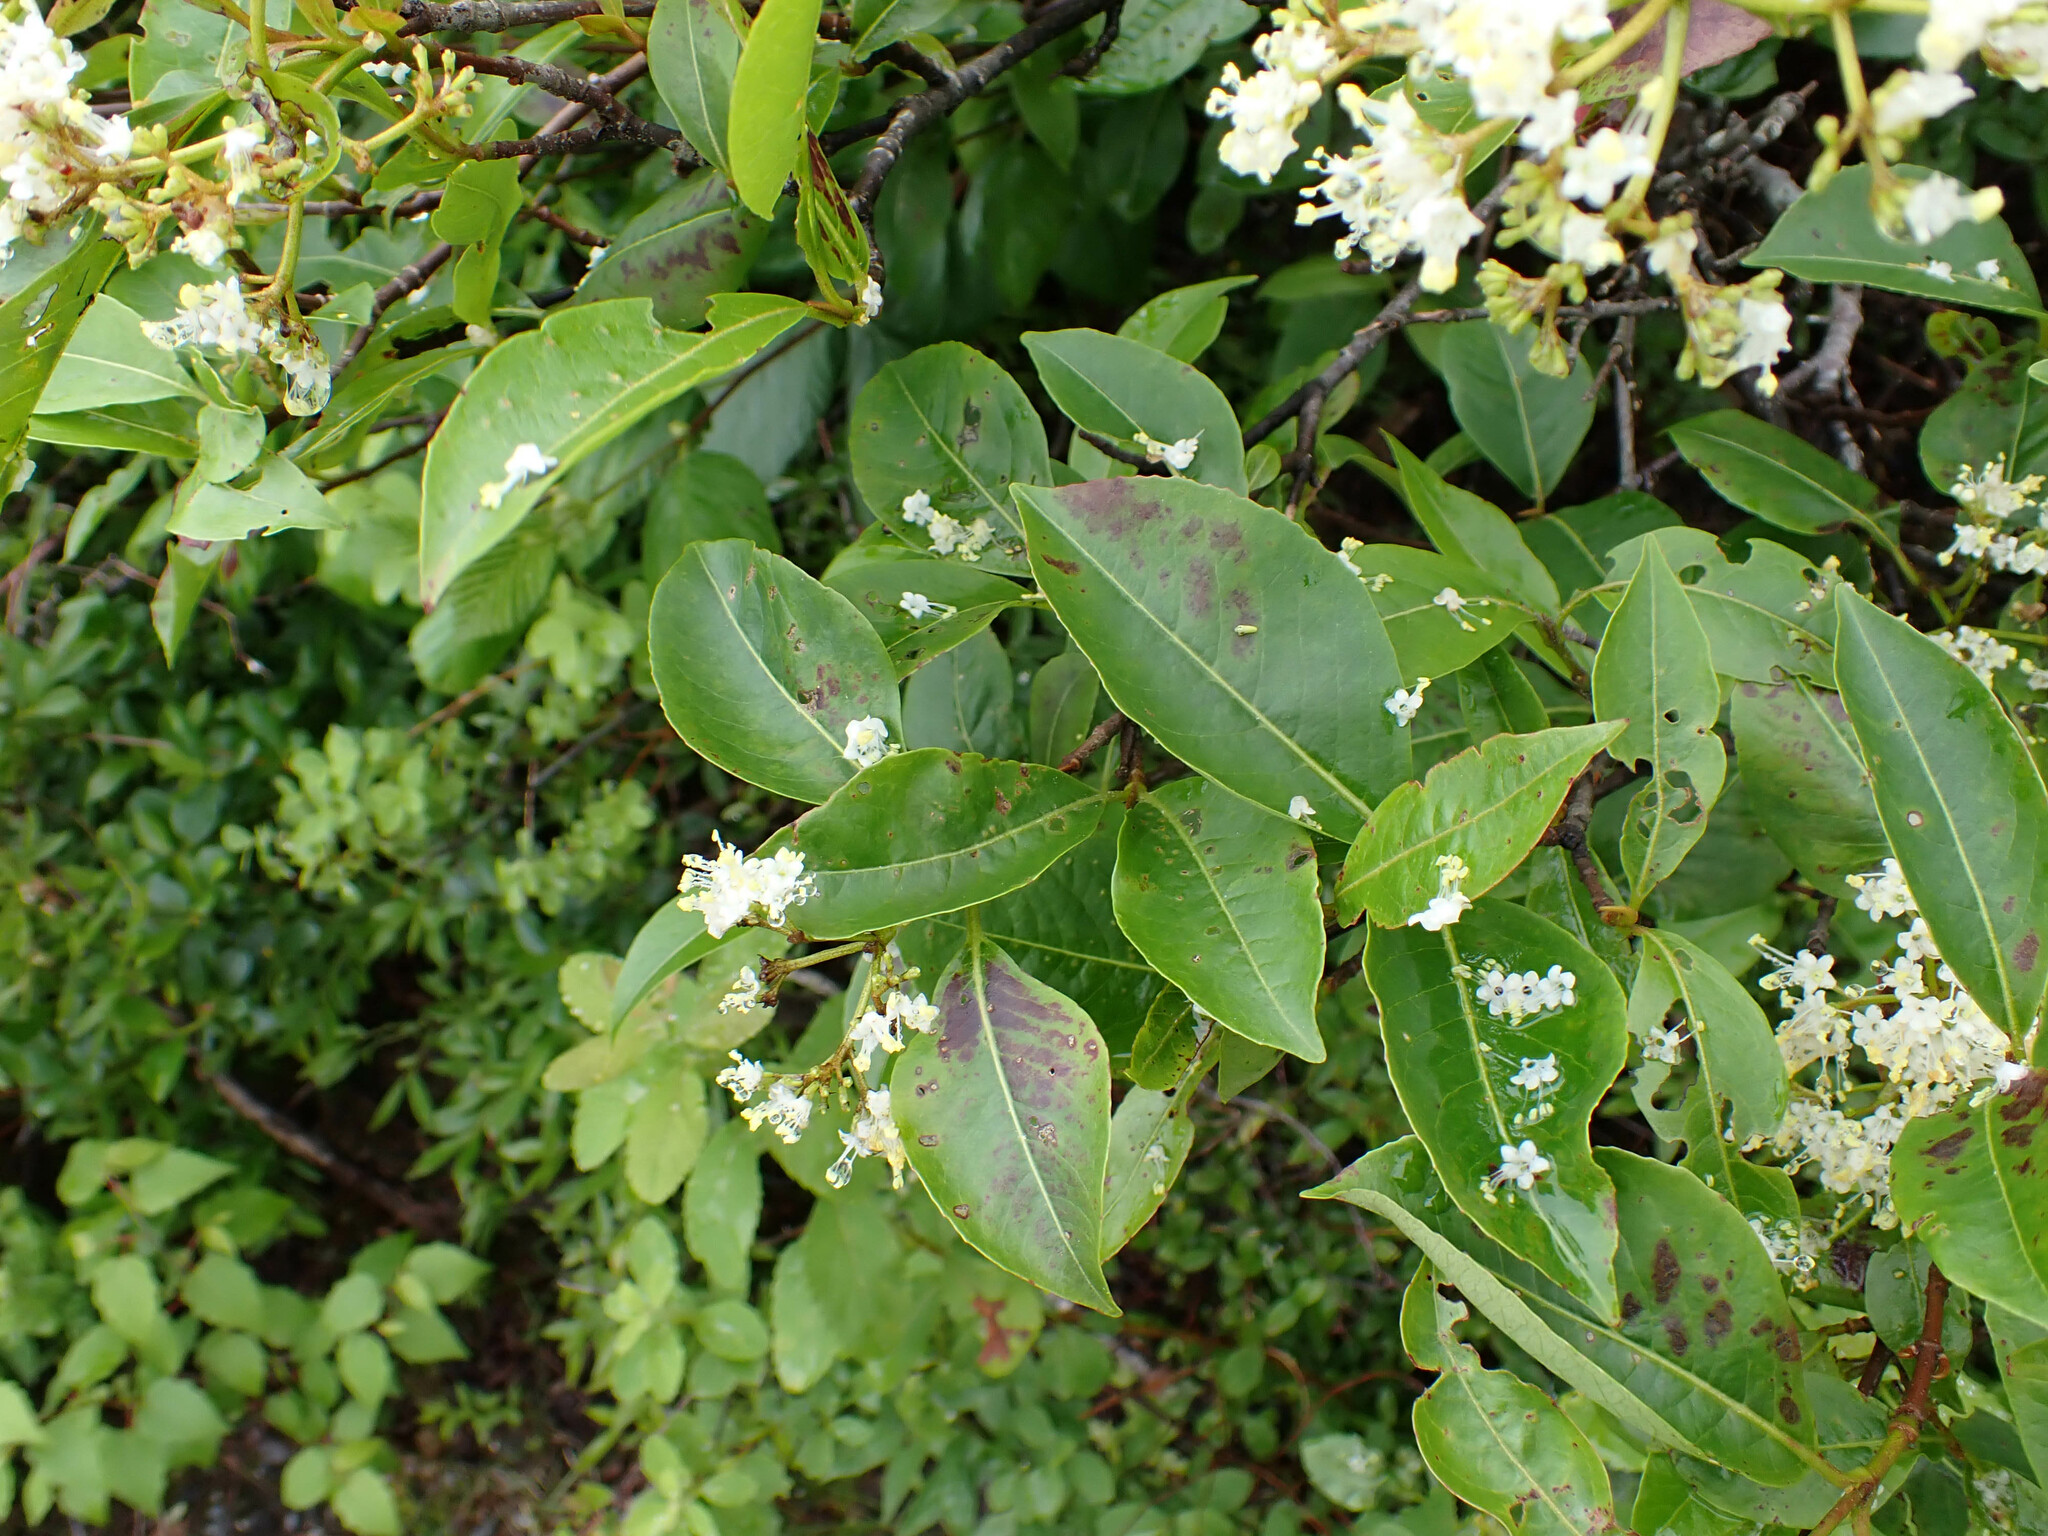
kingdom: Plantae
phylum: Tracheophyta
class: Magnoliopsida
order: Dipsacales
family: Viburnaceae
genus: Viburnum
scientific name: Viburnum cassinoides
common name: Swamp haw
